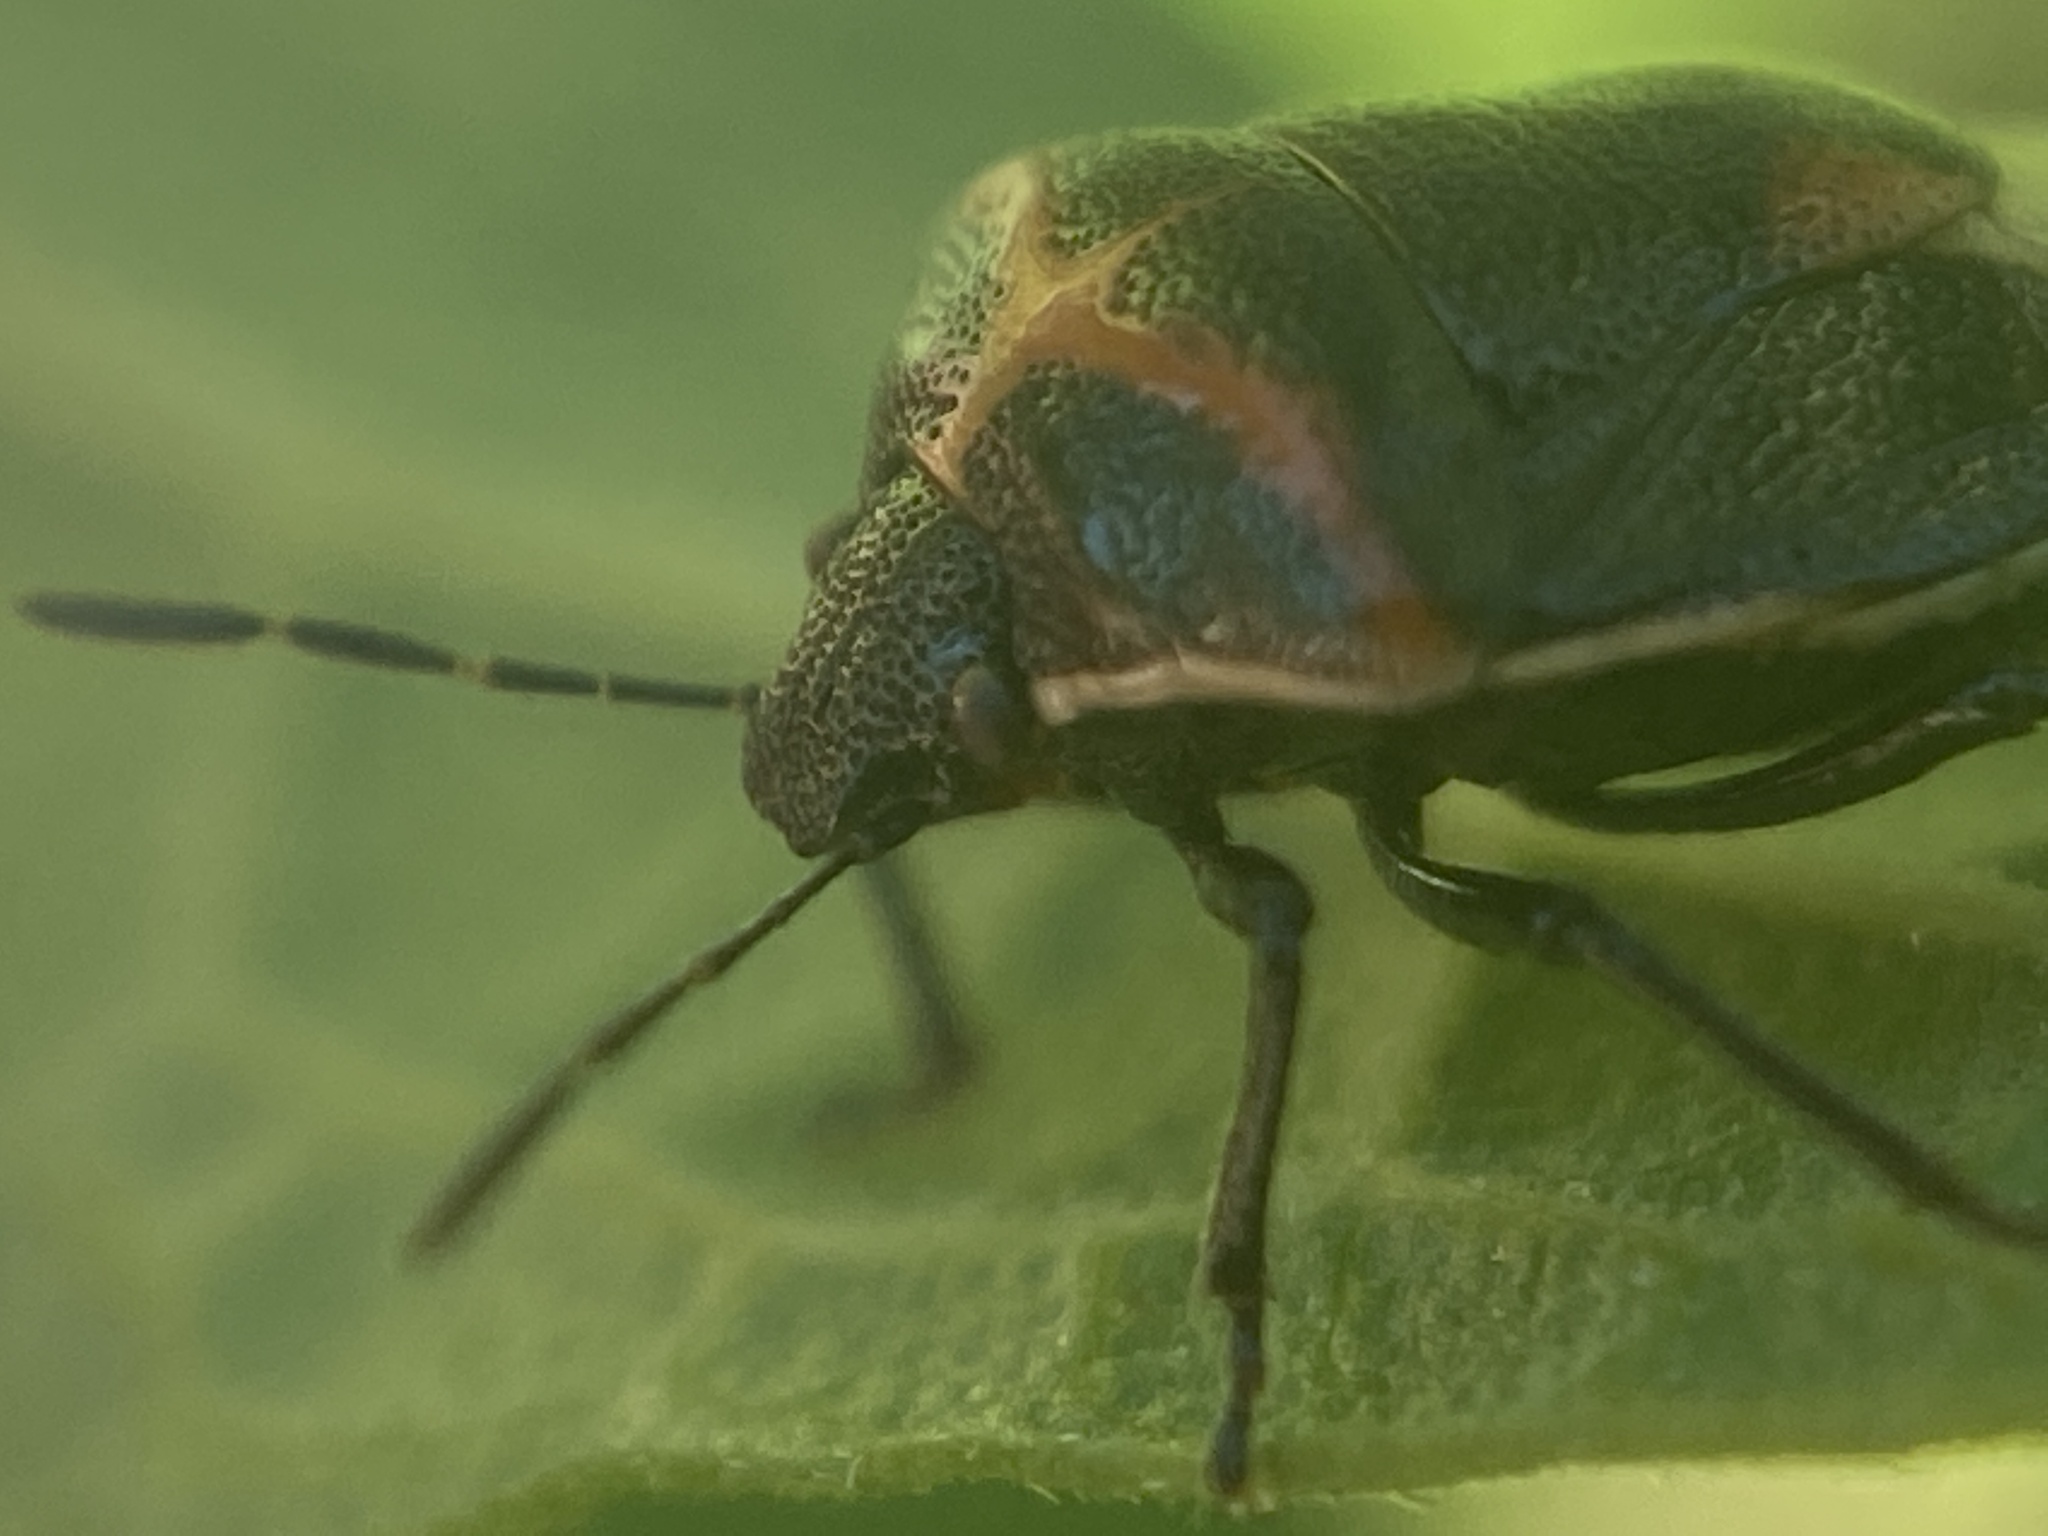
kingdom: Animalia
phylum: Arthropoda
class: Insecta
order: Hemiptera
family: Pentatomidae
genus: Cosmopepla
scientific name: Cosmopepla lintneriana
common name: Twice-stabbed stink bug
